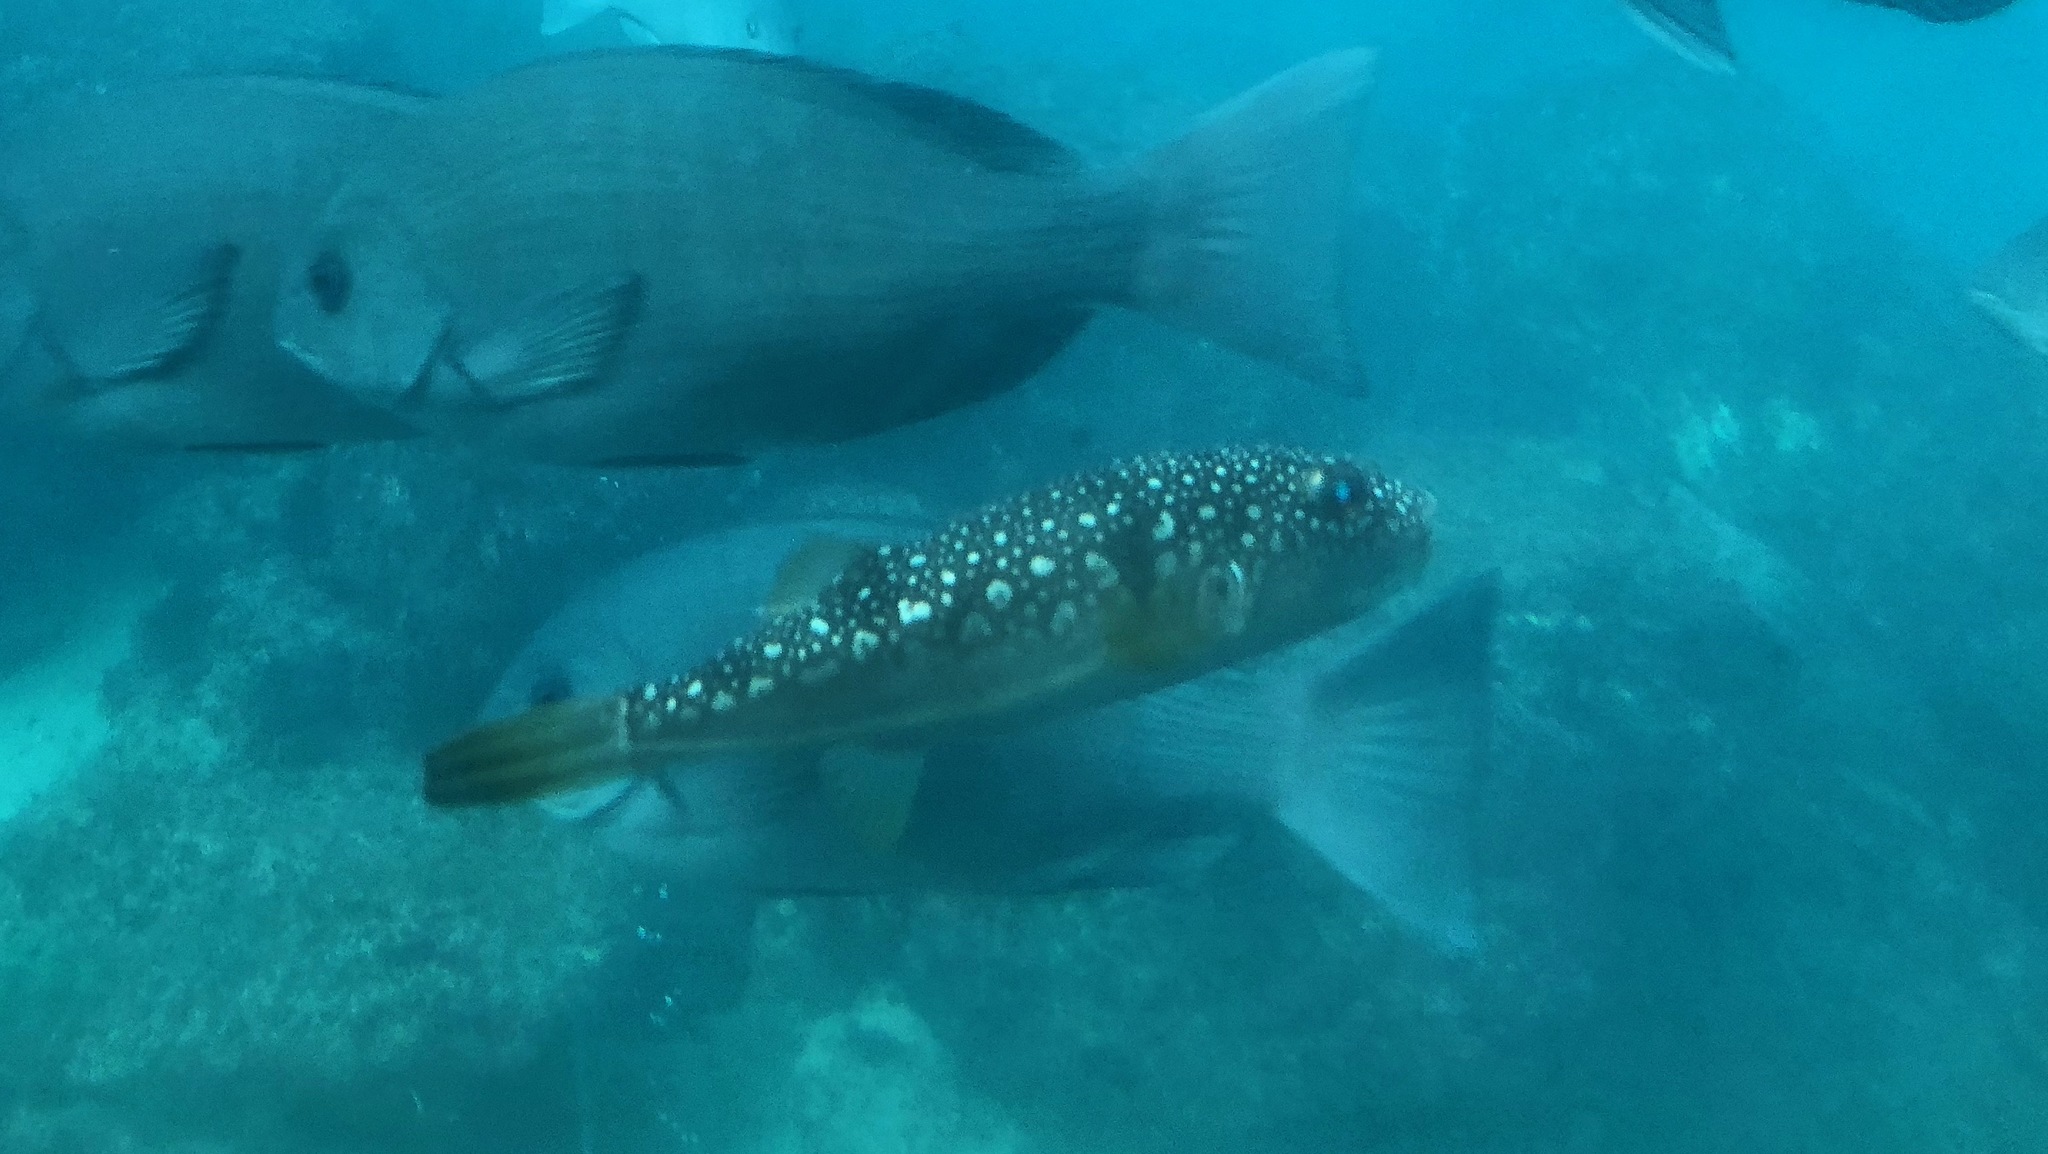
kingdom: Animalia
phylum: Chordata
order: Tetraodontiformes
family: Tetraodontidae
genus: Takifugu
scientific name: Takifugu alboplumbeus
